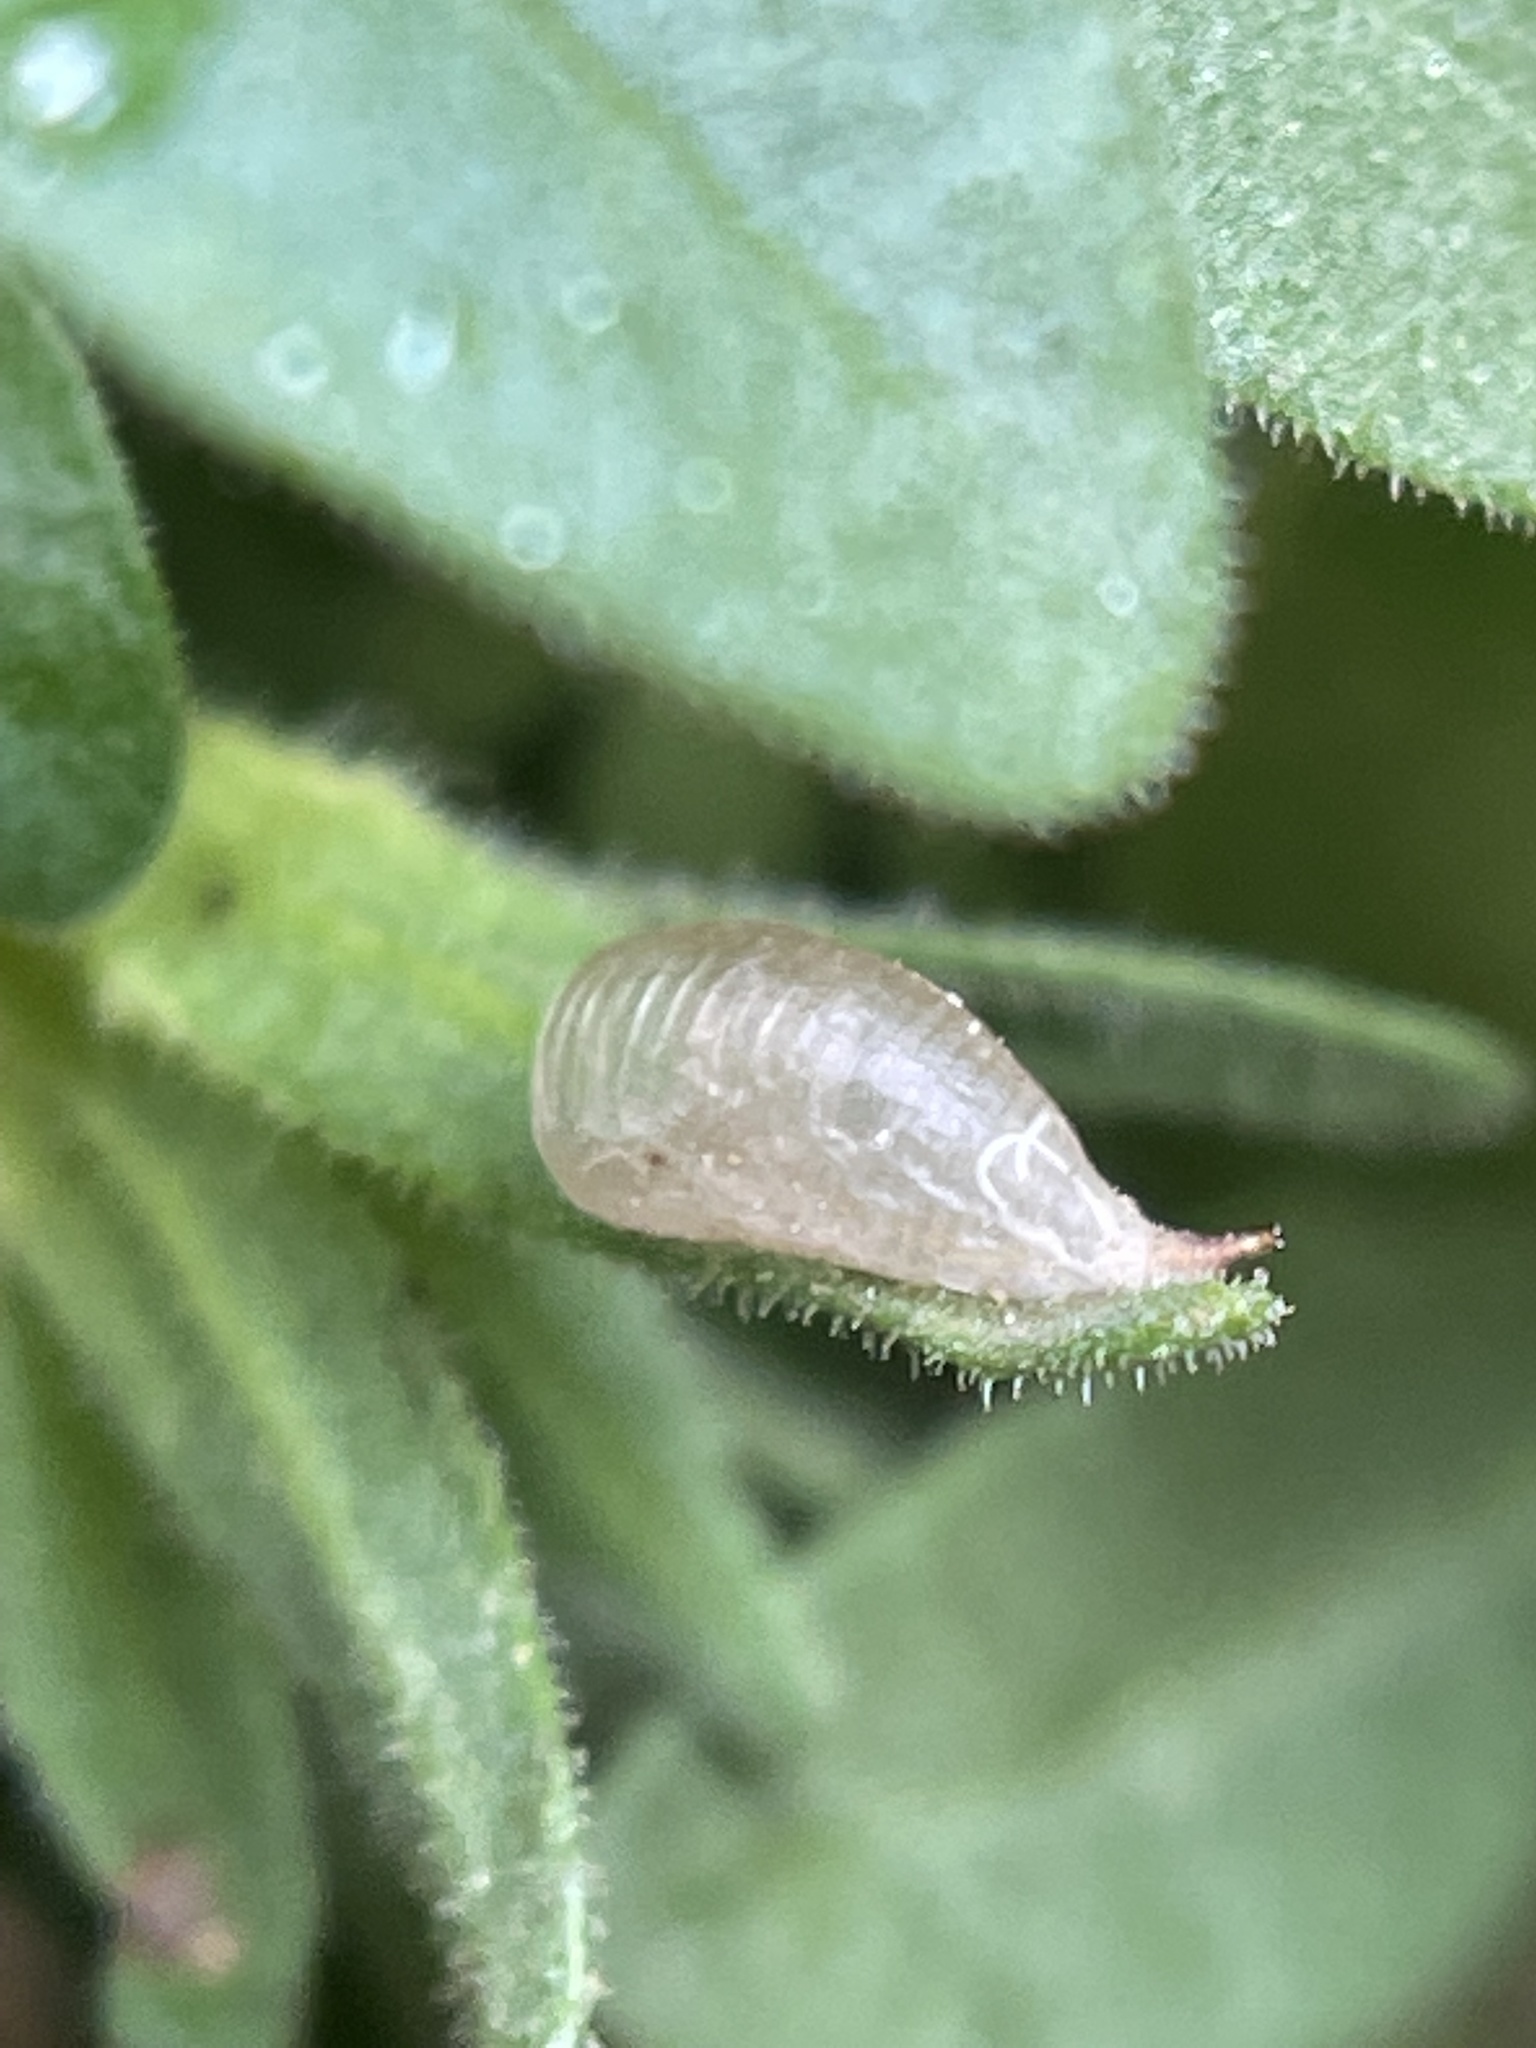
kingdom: Animalia
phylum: Arthropoda
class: Insecta
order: Diptera
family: Syrphidae
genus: Allograpta
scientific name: Allograpta
